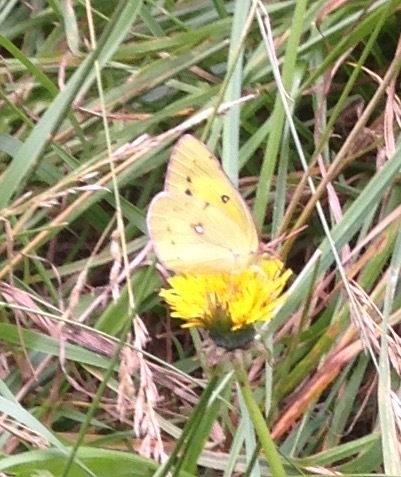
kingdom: Animalia
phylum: Arthropoda
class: Insecta
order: Lepidoptera
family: Pieridae
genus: Colias
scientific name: Colias eurytheme
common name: Alfalfa butterfly
